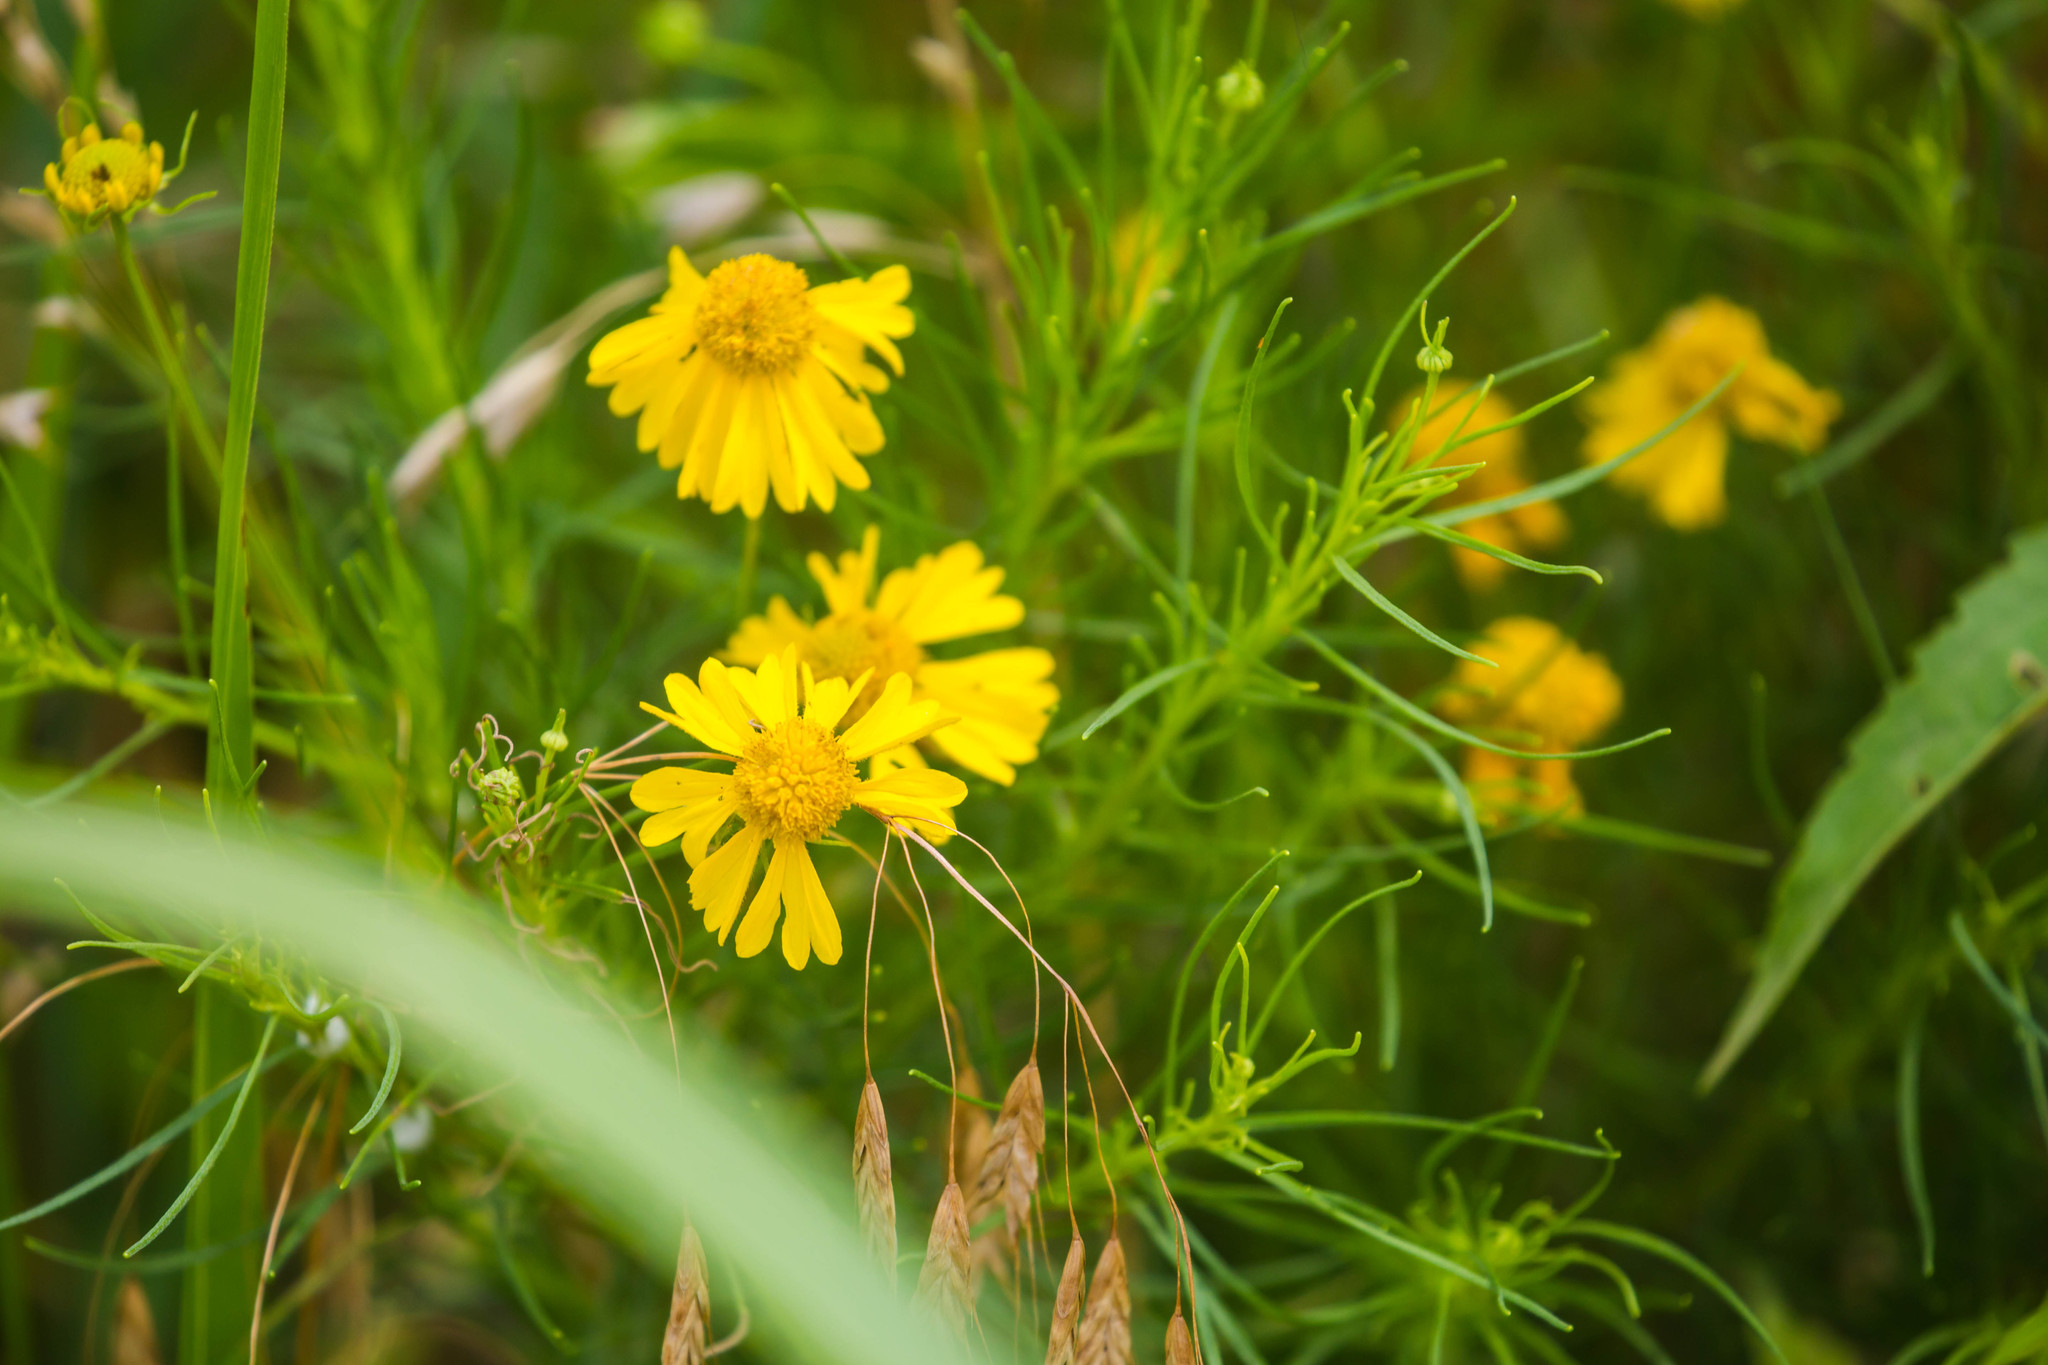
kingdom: Plantae
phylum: Tracheophyta
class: Magnoliopsida
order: Asterales
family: Asteraceae
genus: Helenium
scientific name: Helenium amarum
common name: Bitter sneezeweed
